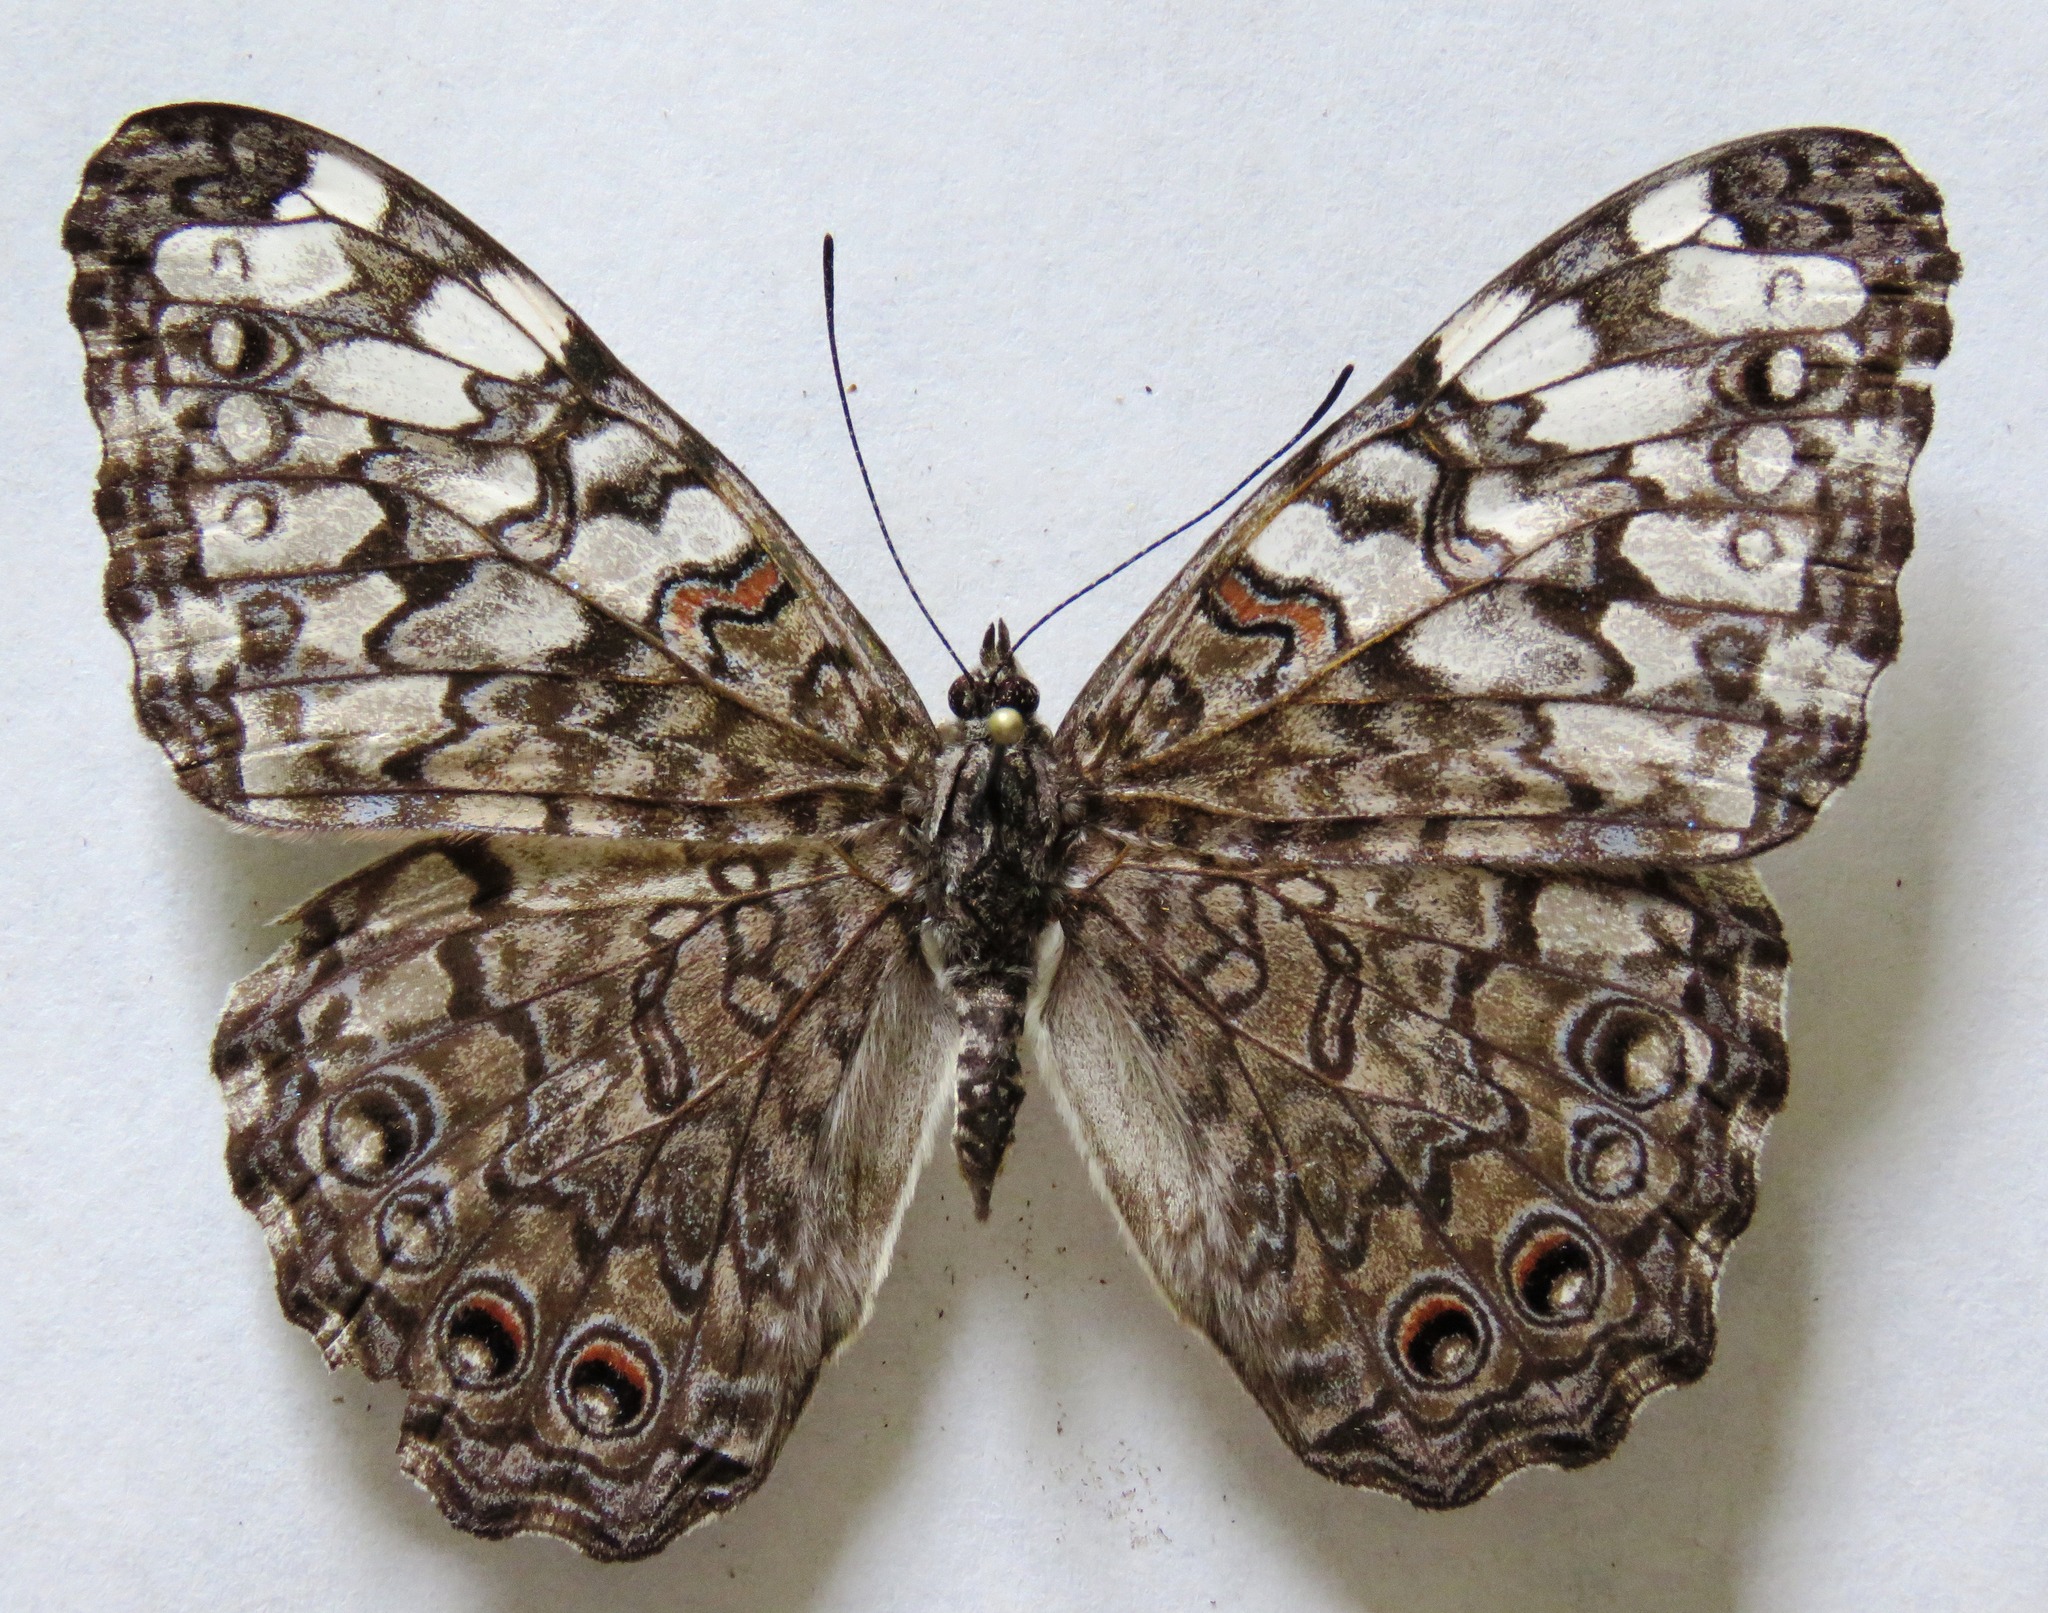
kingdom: Animalia
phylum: Arthropoda
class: Insecta
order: Lepidoptera
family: Nymphalidae
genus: Hamadryas
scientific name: Hamadryas februa
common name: Gray cracker
